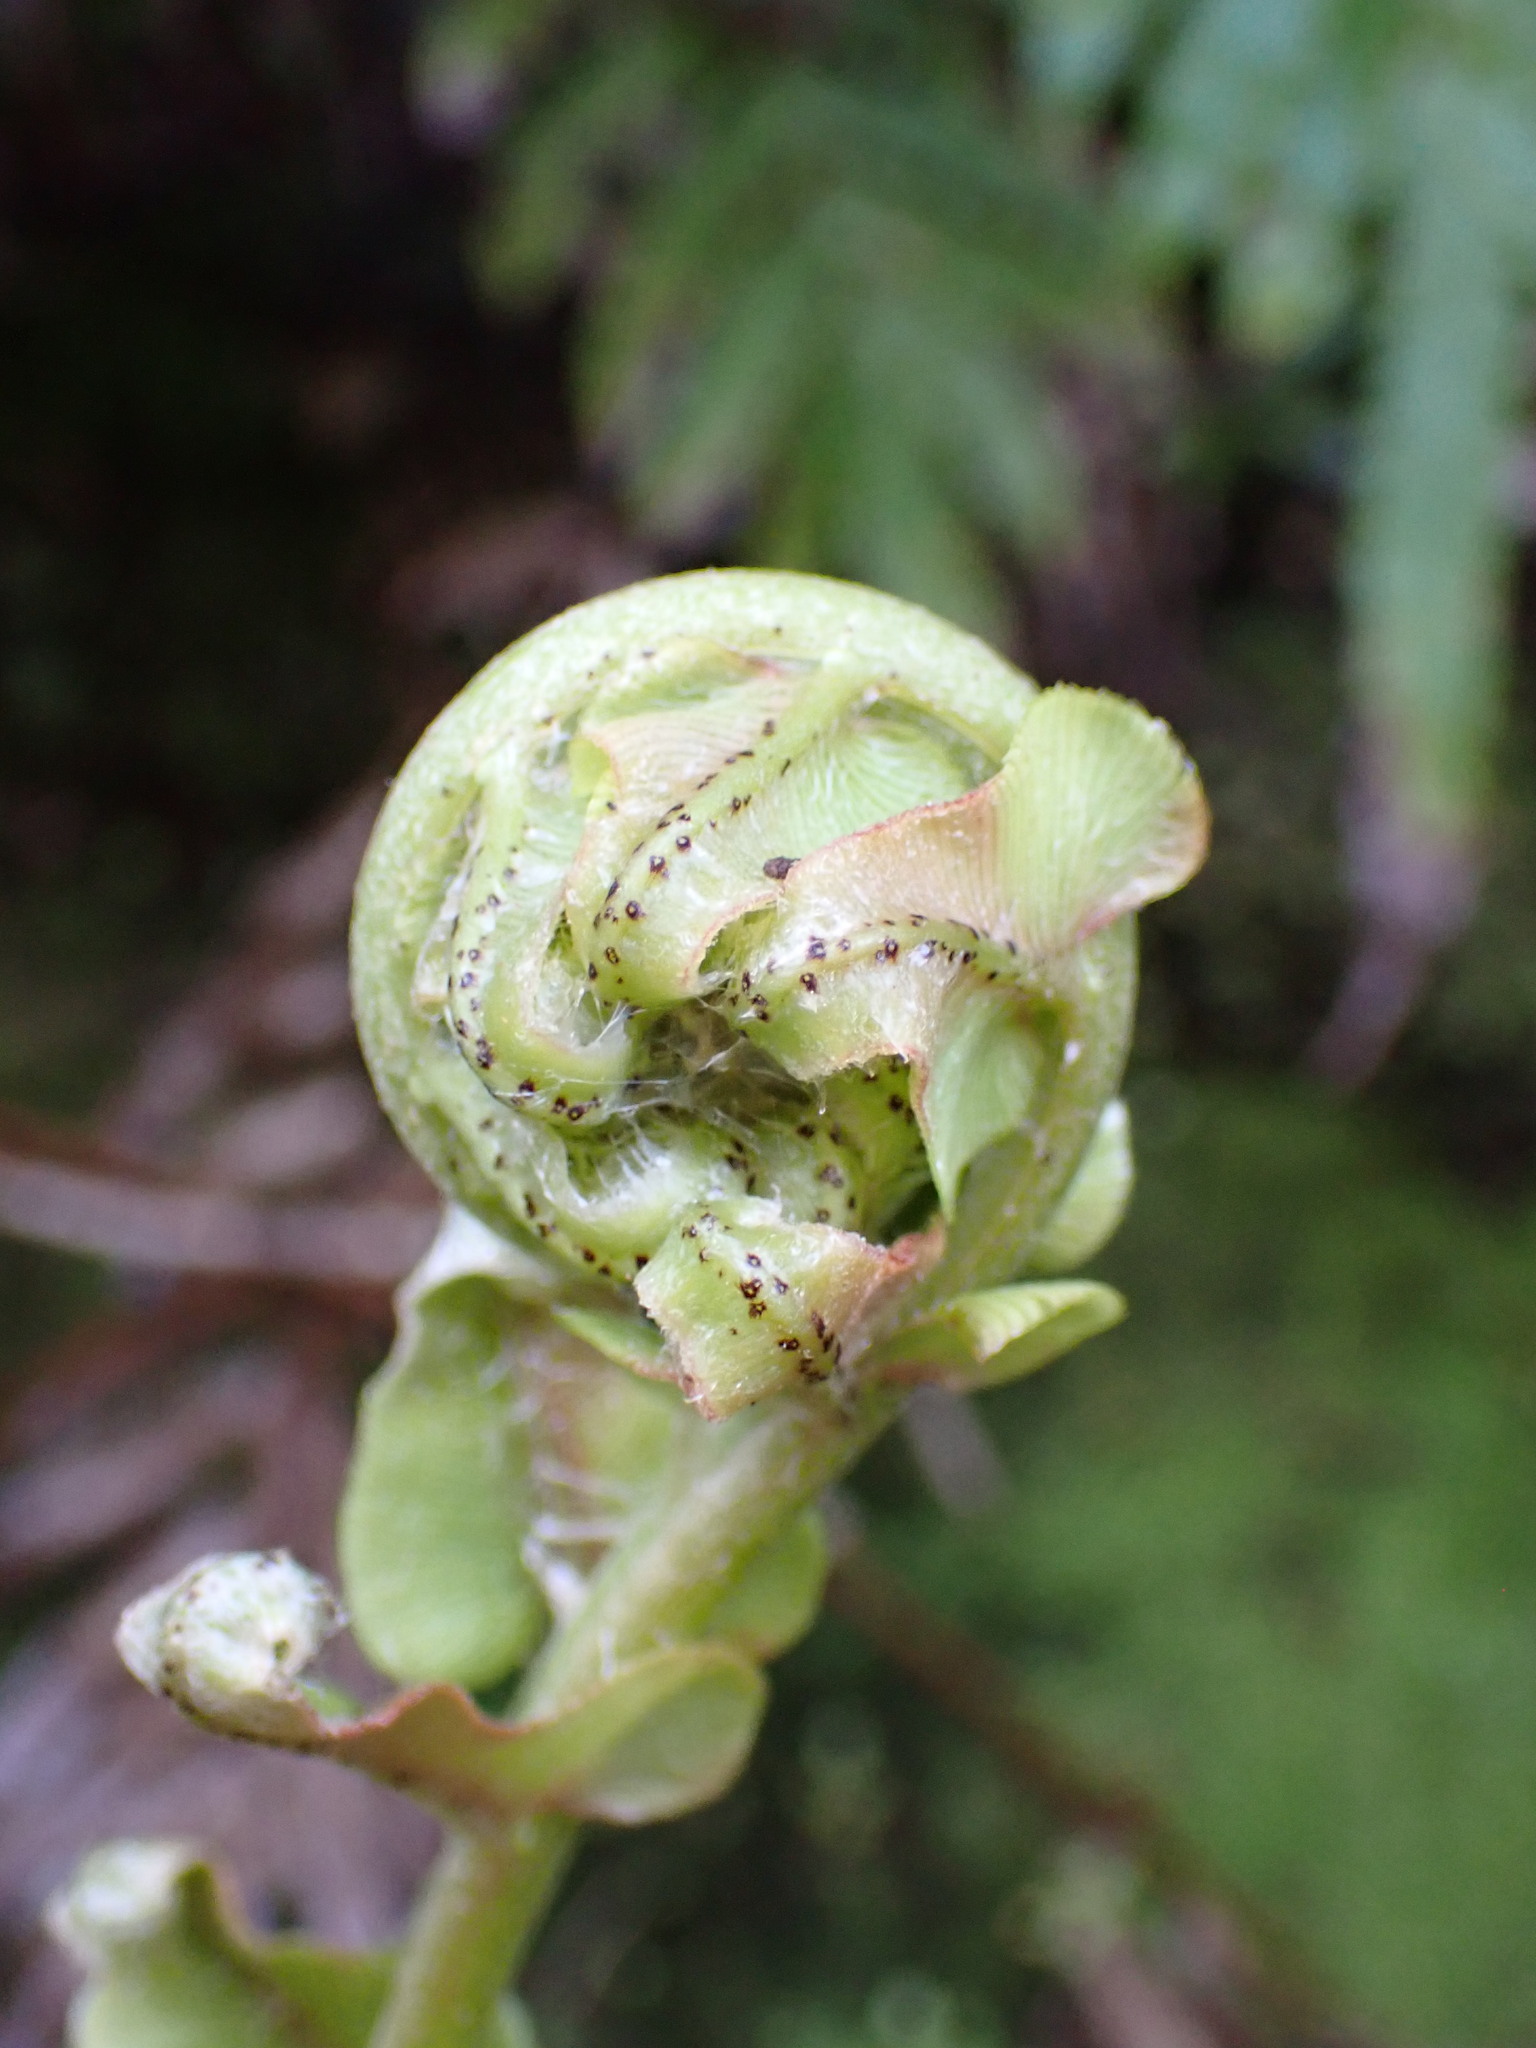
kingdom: Plantae
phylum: Tracheophyta
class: Polypodiopsida
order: Polypodiales
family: Blechnaceae
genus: Parablechnum
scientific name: Parablechnum novae-zelandiae
